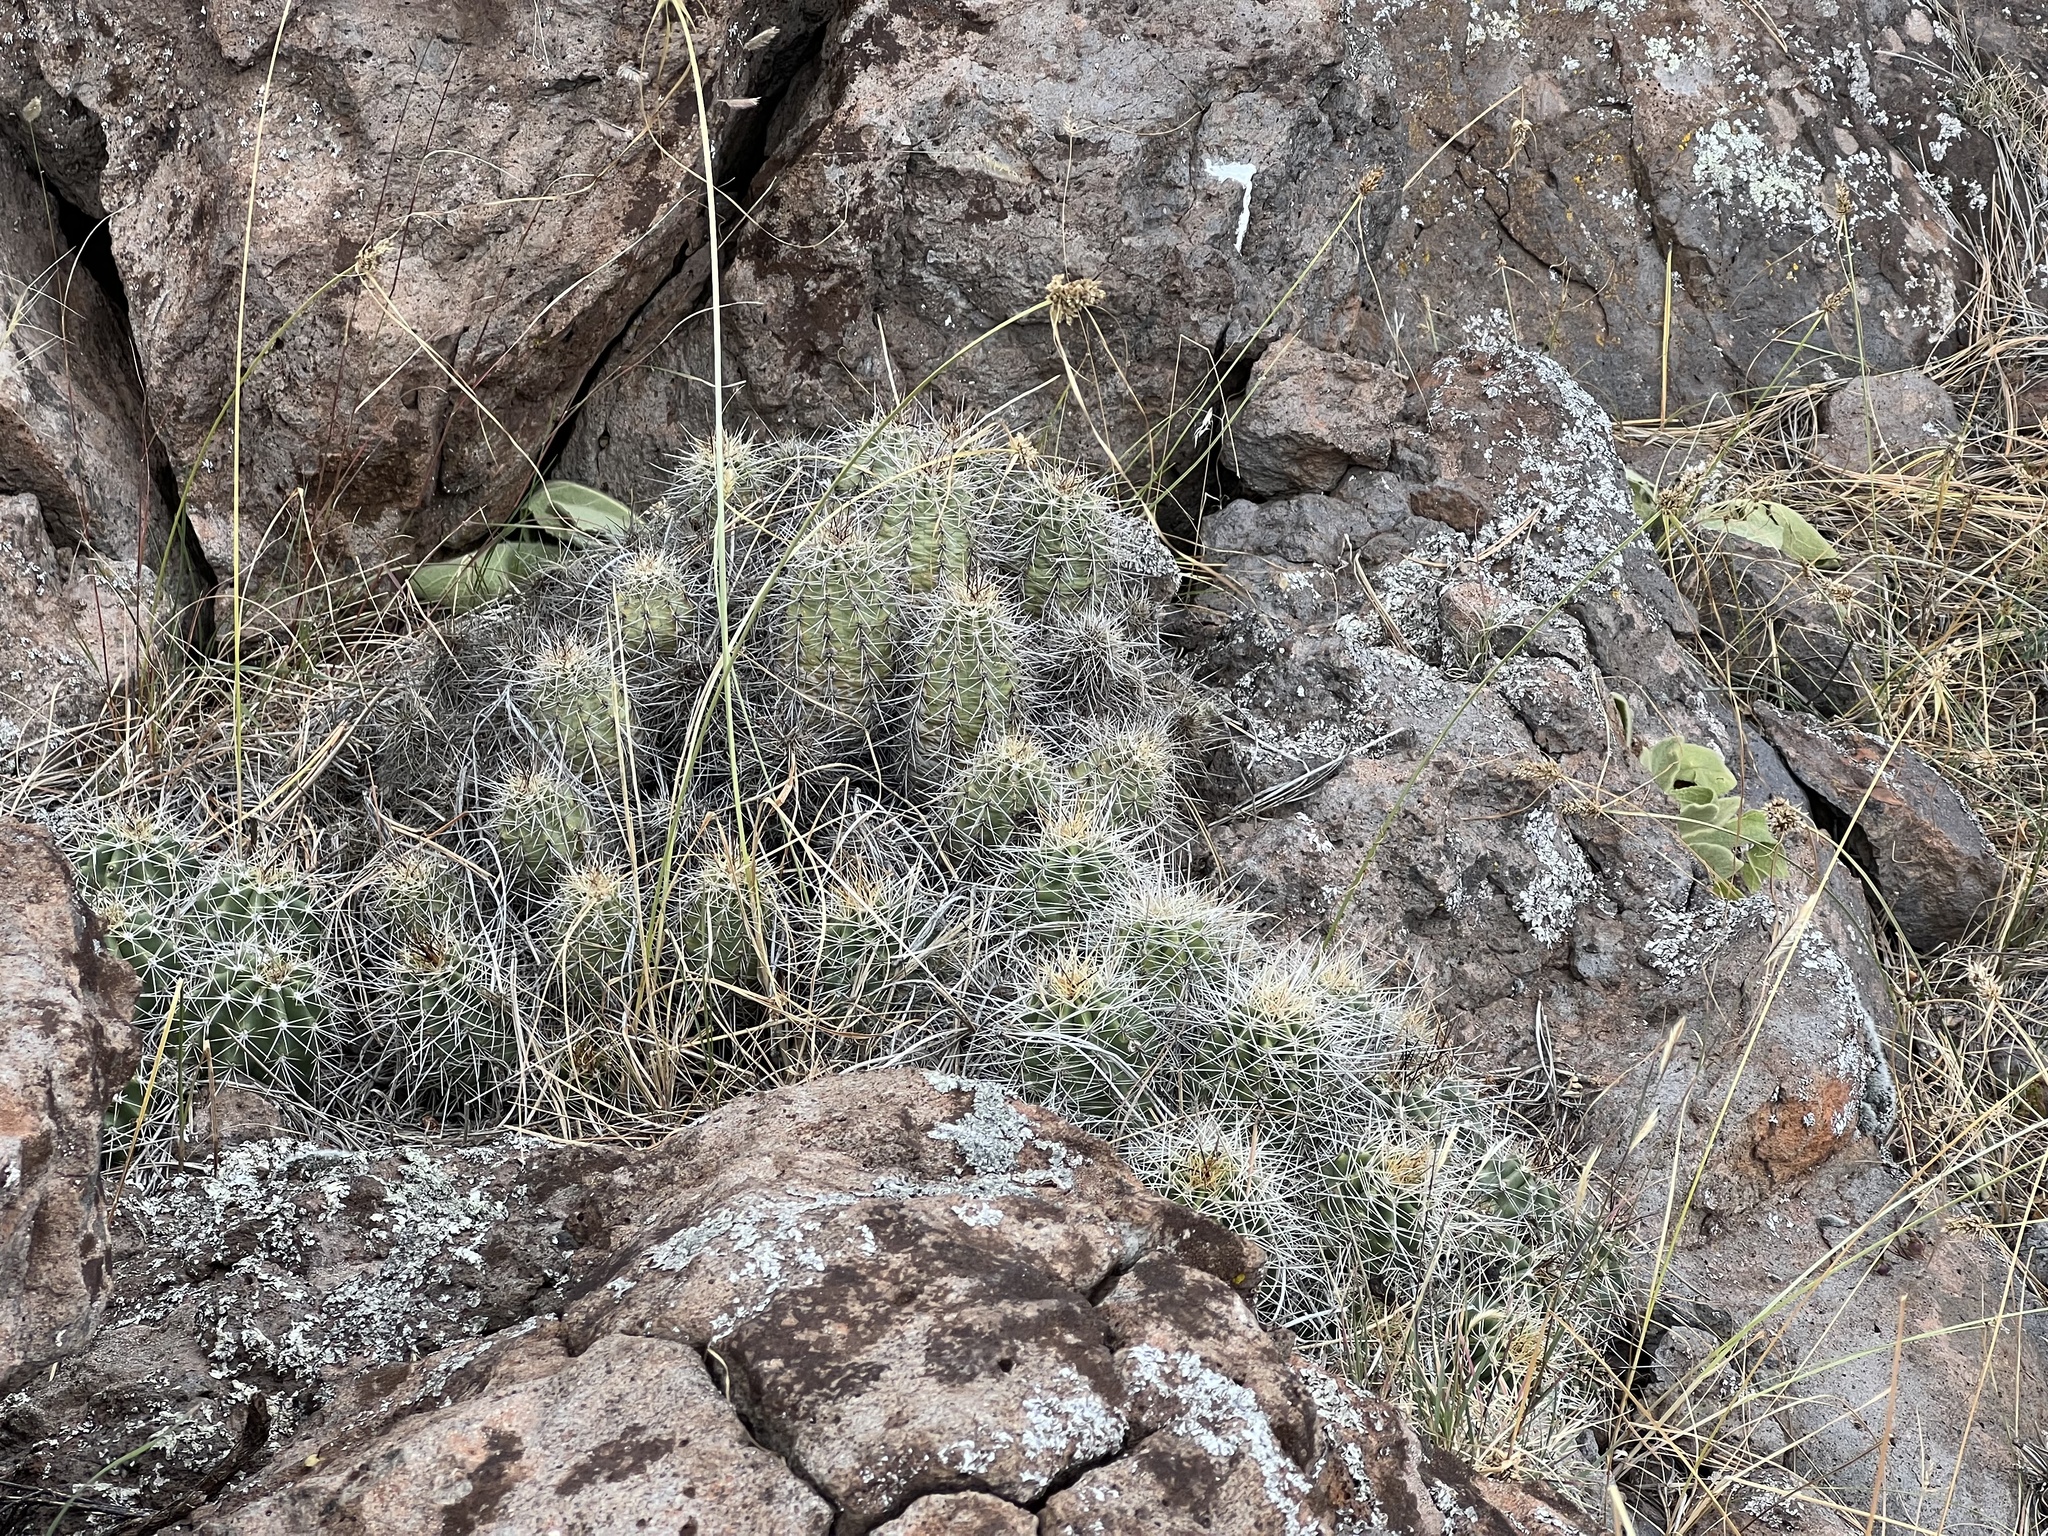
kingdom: Plantae
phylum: Tracheophyta
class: Magnoliopsida
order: Caryophyllales
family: Cactaceae
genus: Echinocereus
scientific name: Echinocereus bakeri
